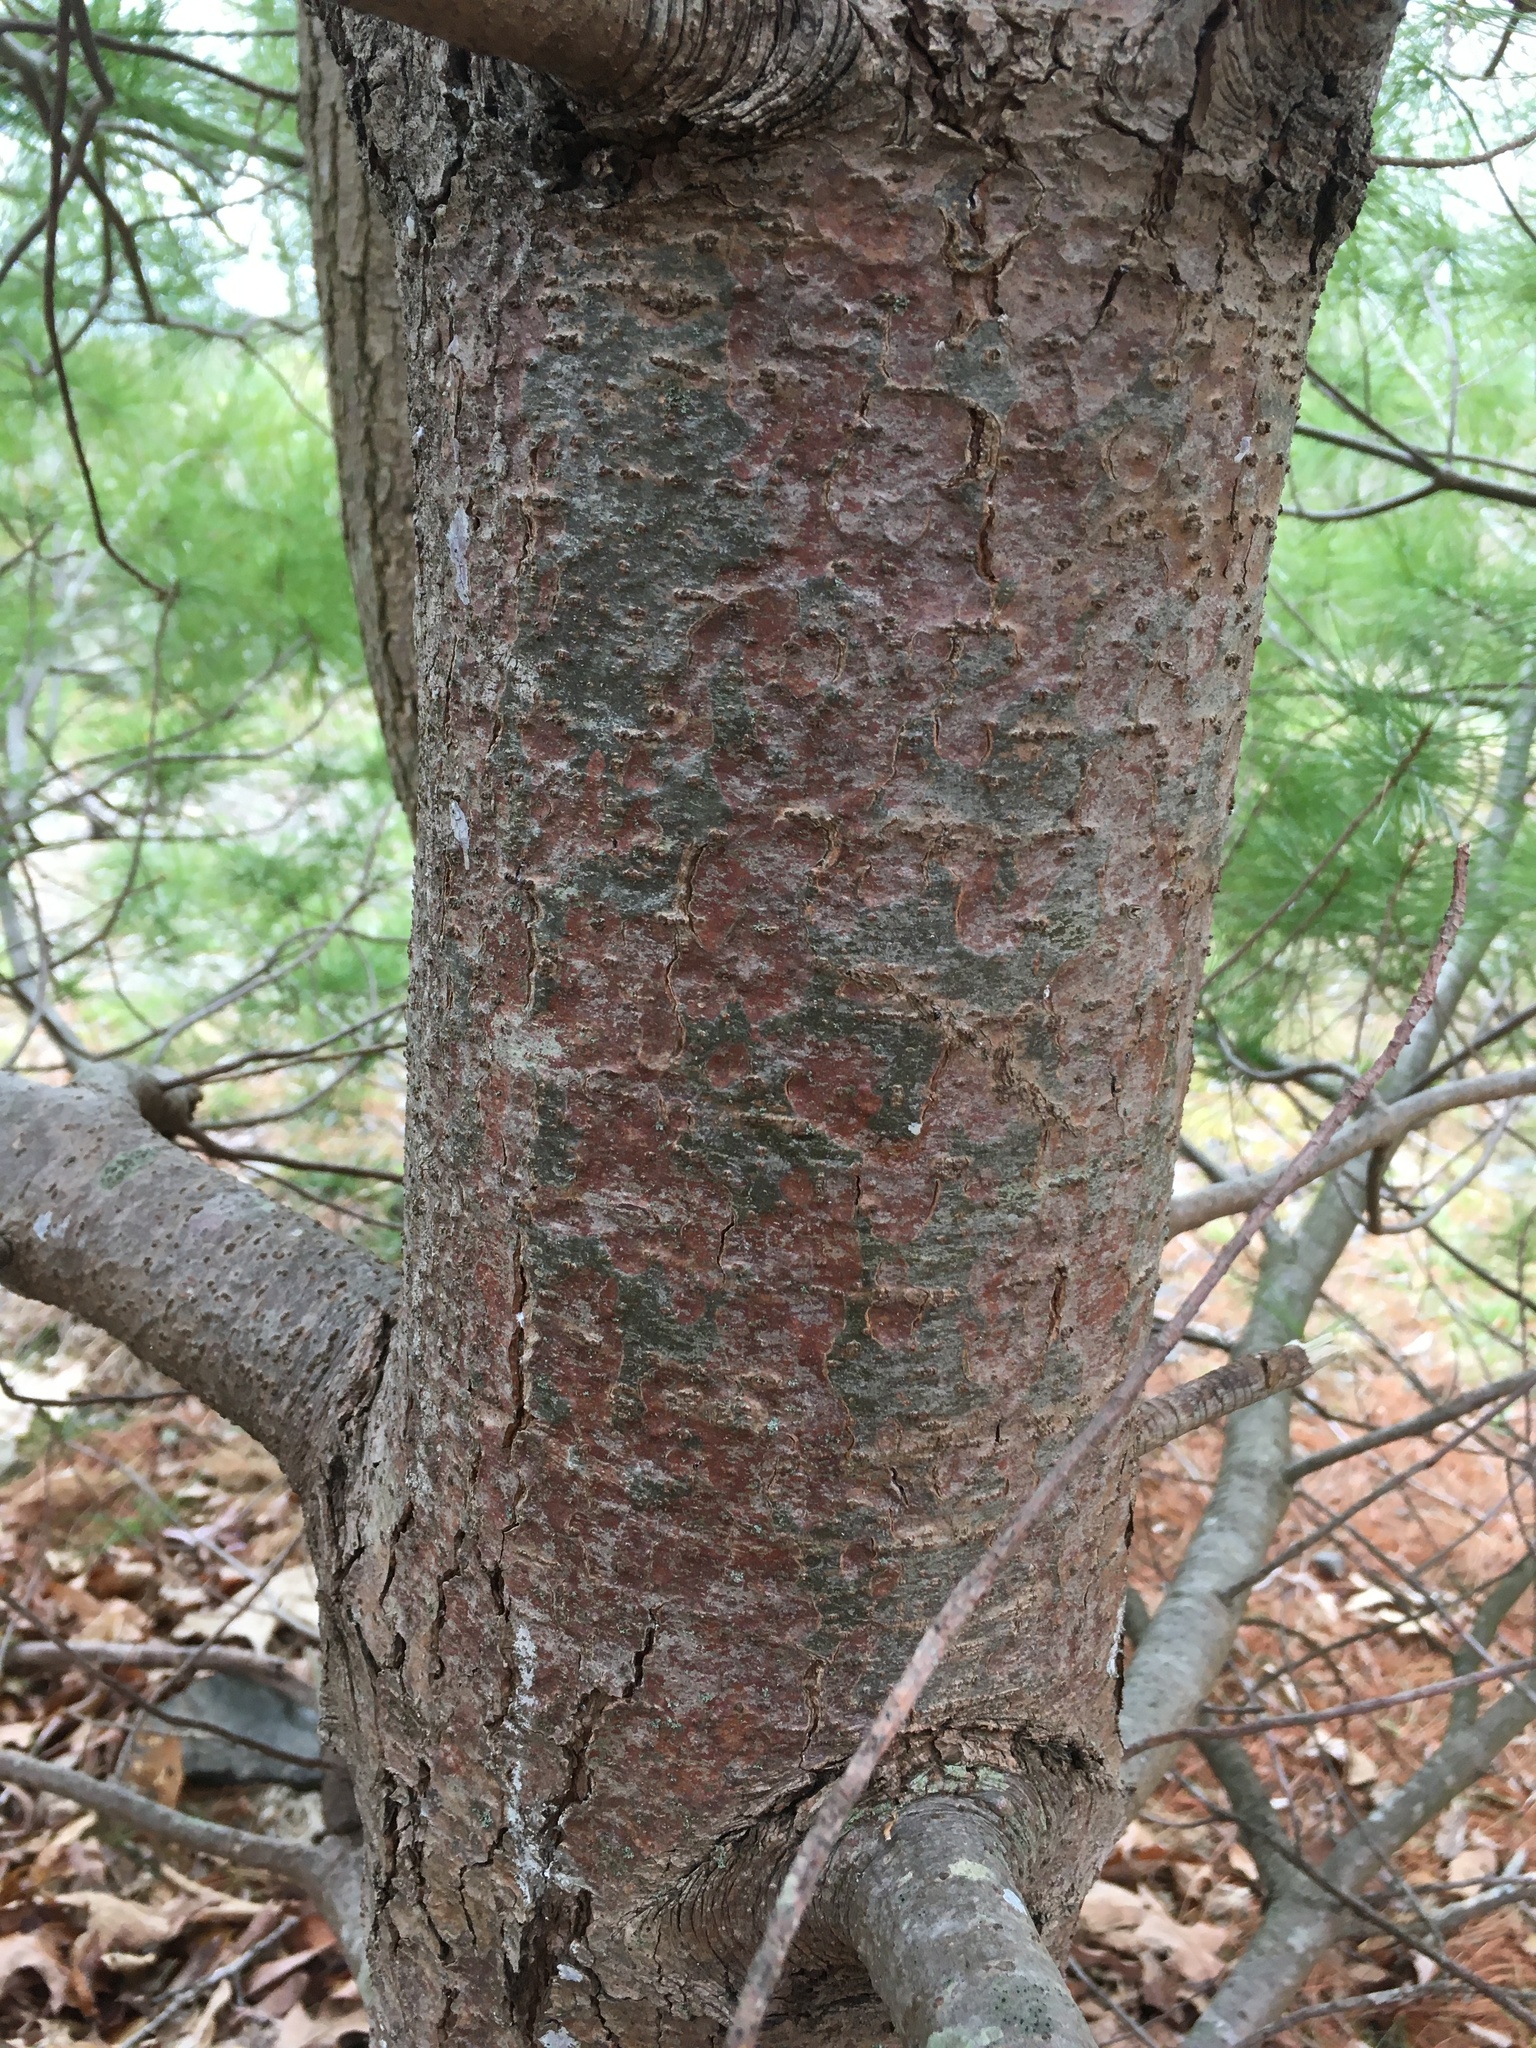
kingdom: Plantae
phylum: Tracheophyta
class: Pinopsida
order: Pinales
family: Pinaceae
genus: Pinus
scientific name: Pinus strobus
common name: Weymouth pine
